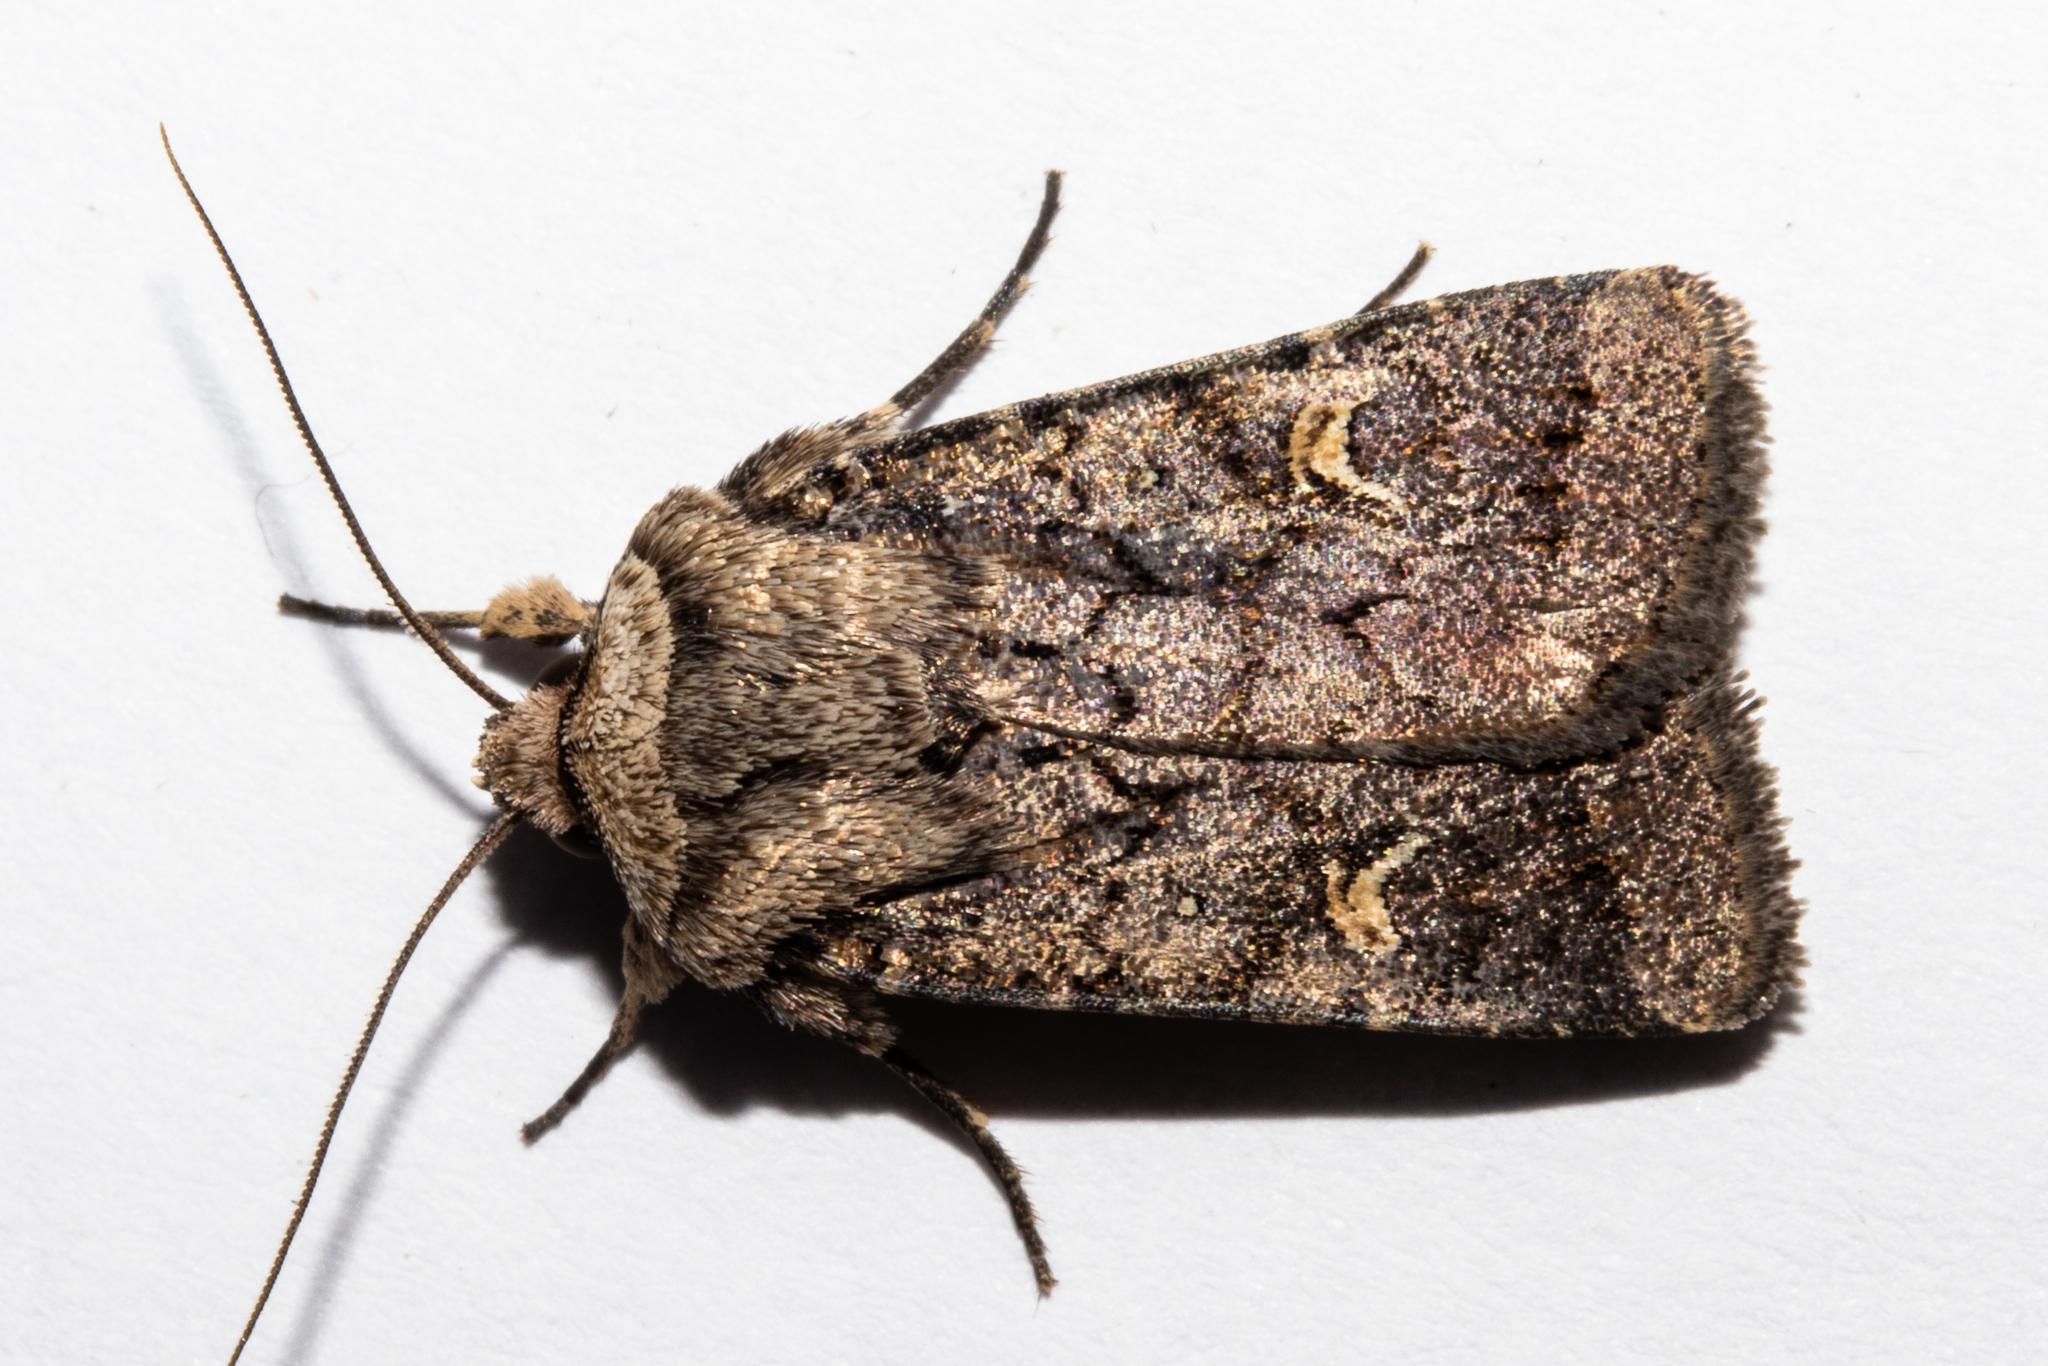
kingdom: Animalia
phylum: Arthropoda
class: Insecta
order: Lepidoptera
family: Noctuidae
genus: Proteuxoa
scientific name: Proteuxoa tetronycha
